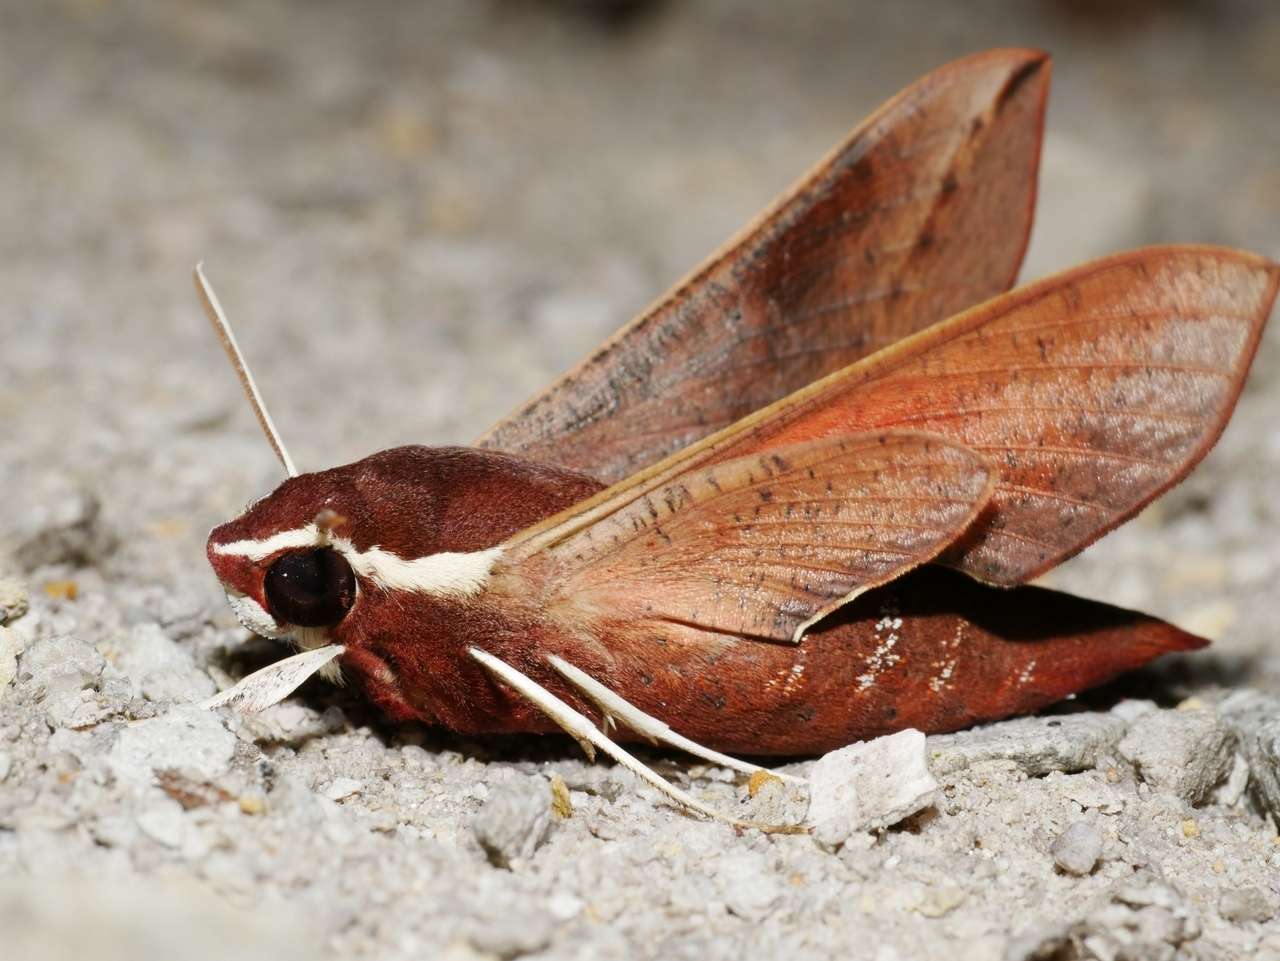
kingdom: Animalia
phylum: Arthropoda
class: Insecta
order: Lepidoptera
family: Sphingidae
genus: Hippotion
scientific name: Hippotion scrofa
